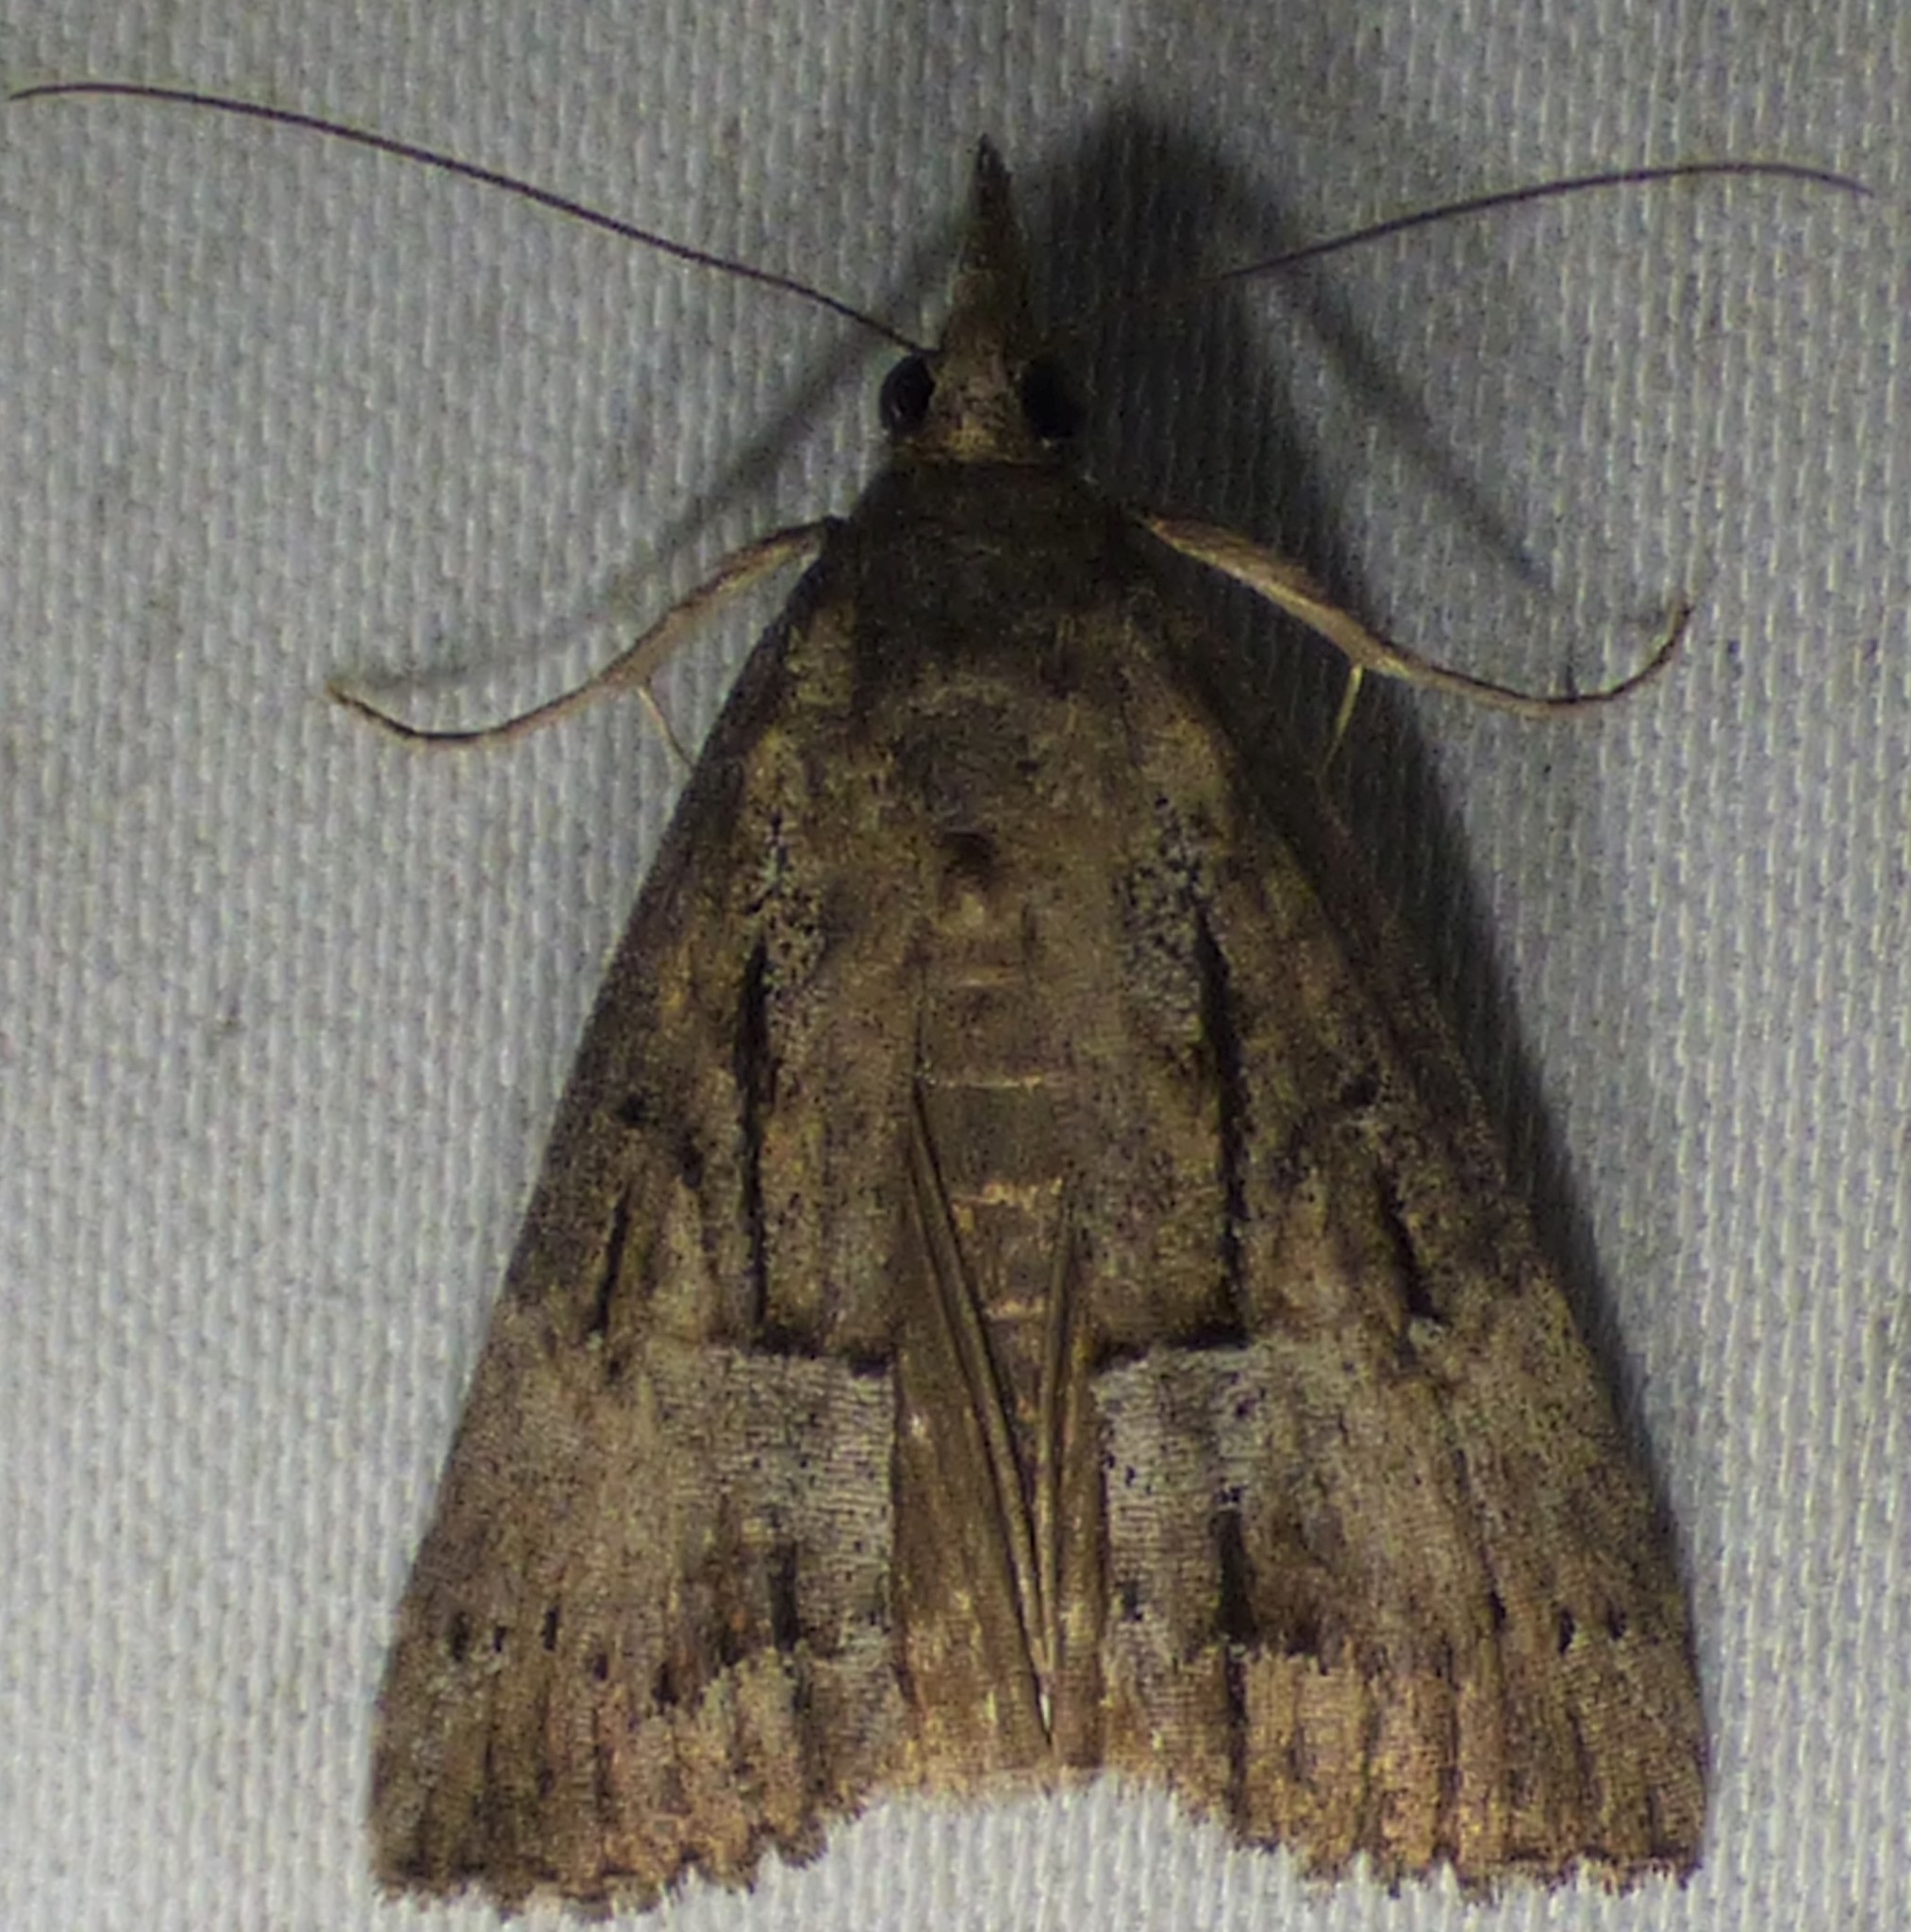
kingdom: Animalia
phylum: Arthropoda
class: Insecta
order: Lepidoptera
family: Erebidae
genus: Hypena
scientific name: Hypena scabra
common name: Green cloverworm
